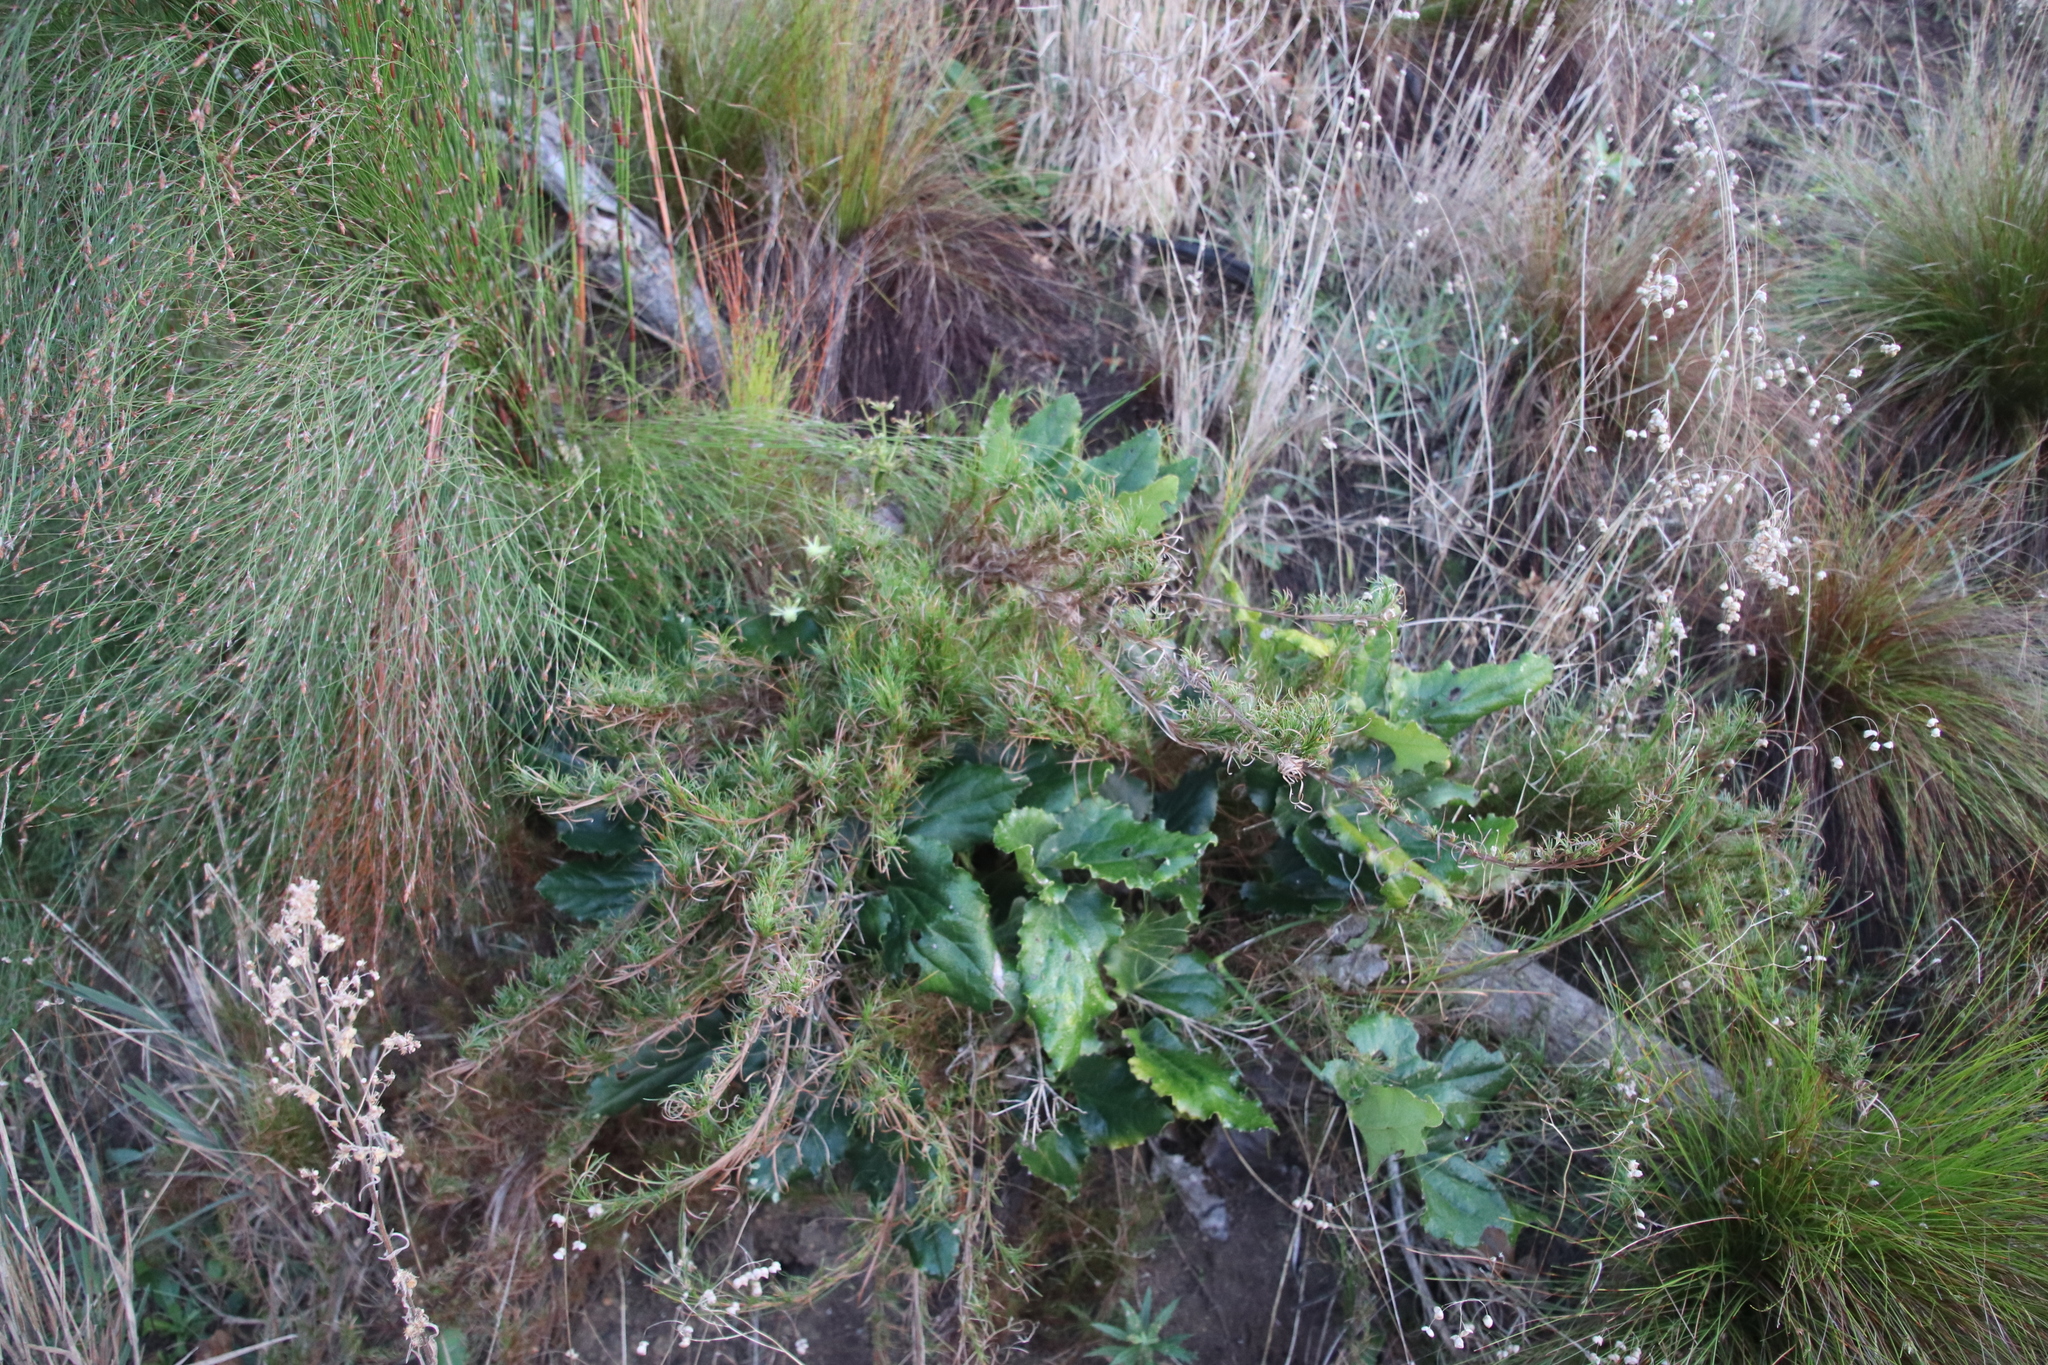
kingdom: Plantae
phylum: Tracheophyta
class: Magnoliopsida
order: Ranunculales
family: Ranunculaceae
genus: Knowltonia
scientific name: Knowltonia vesicatoria
